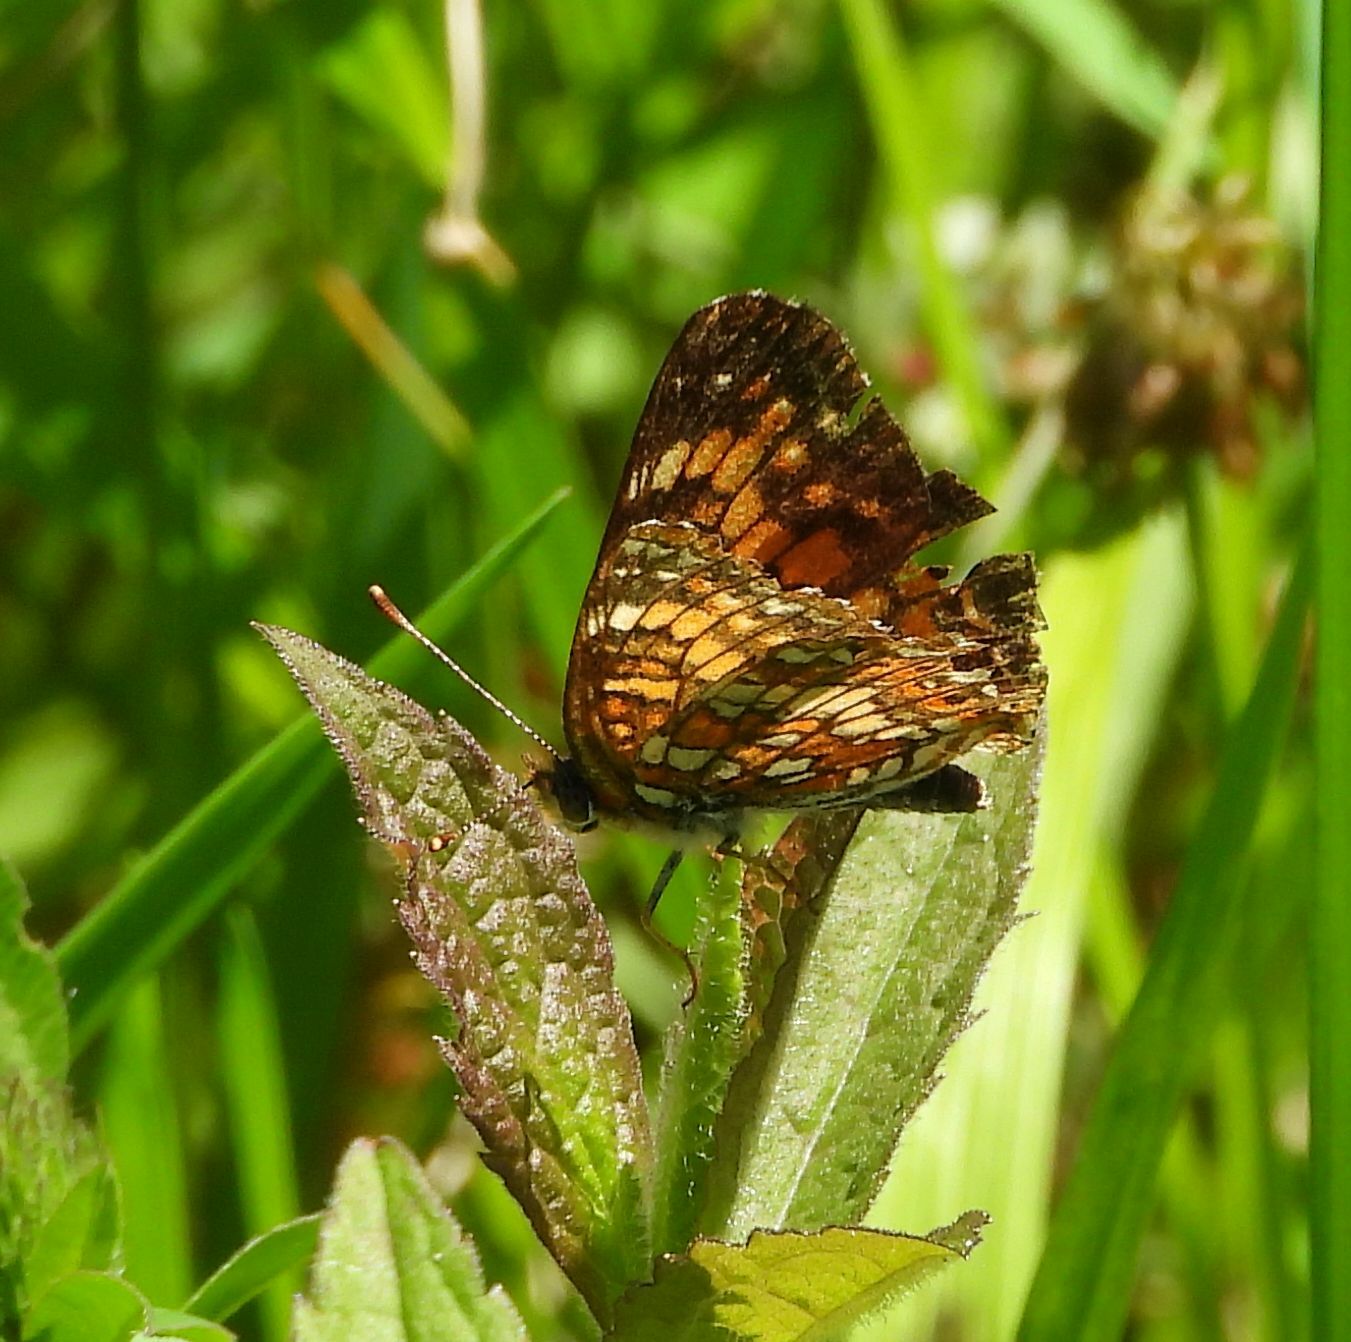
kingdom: Animalia
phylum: Arthropoda
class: Insecta
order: Lepidoptera
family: Nymphalidae
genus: Chlosyne
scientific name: Chlosyne harrisii
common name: Harris's checkerspot
